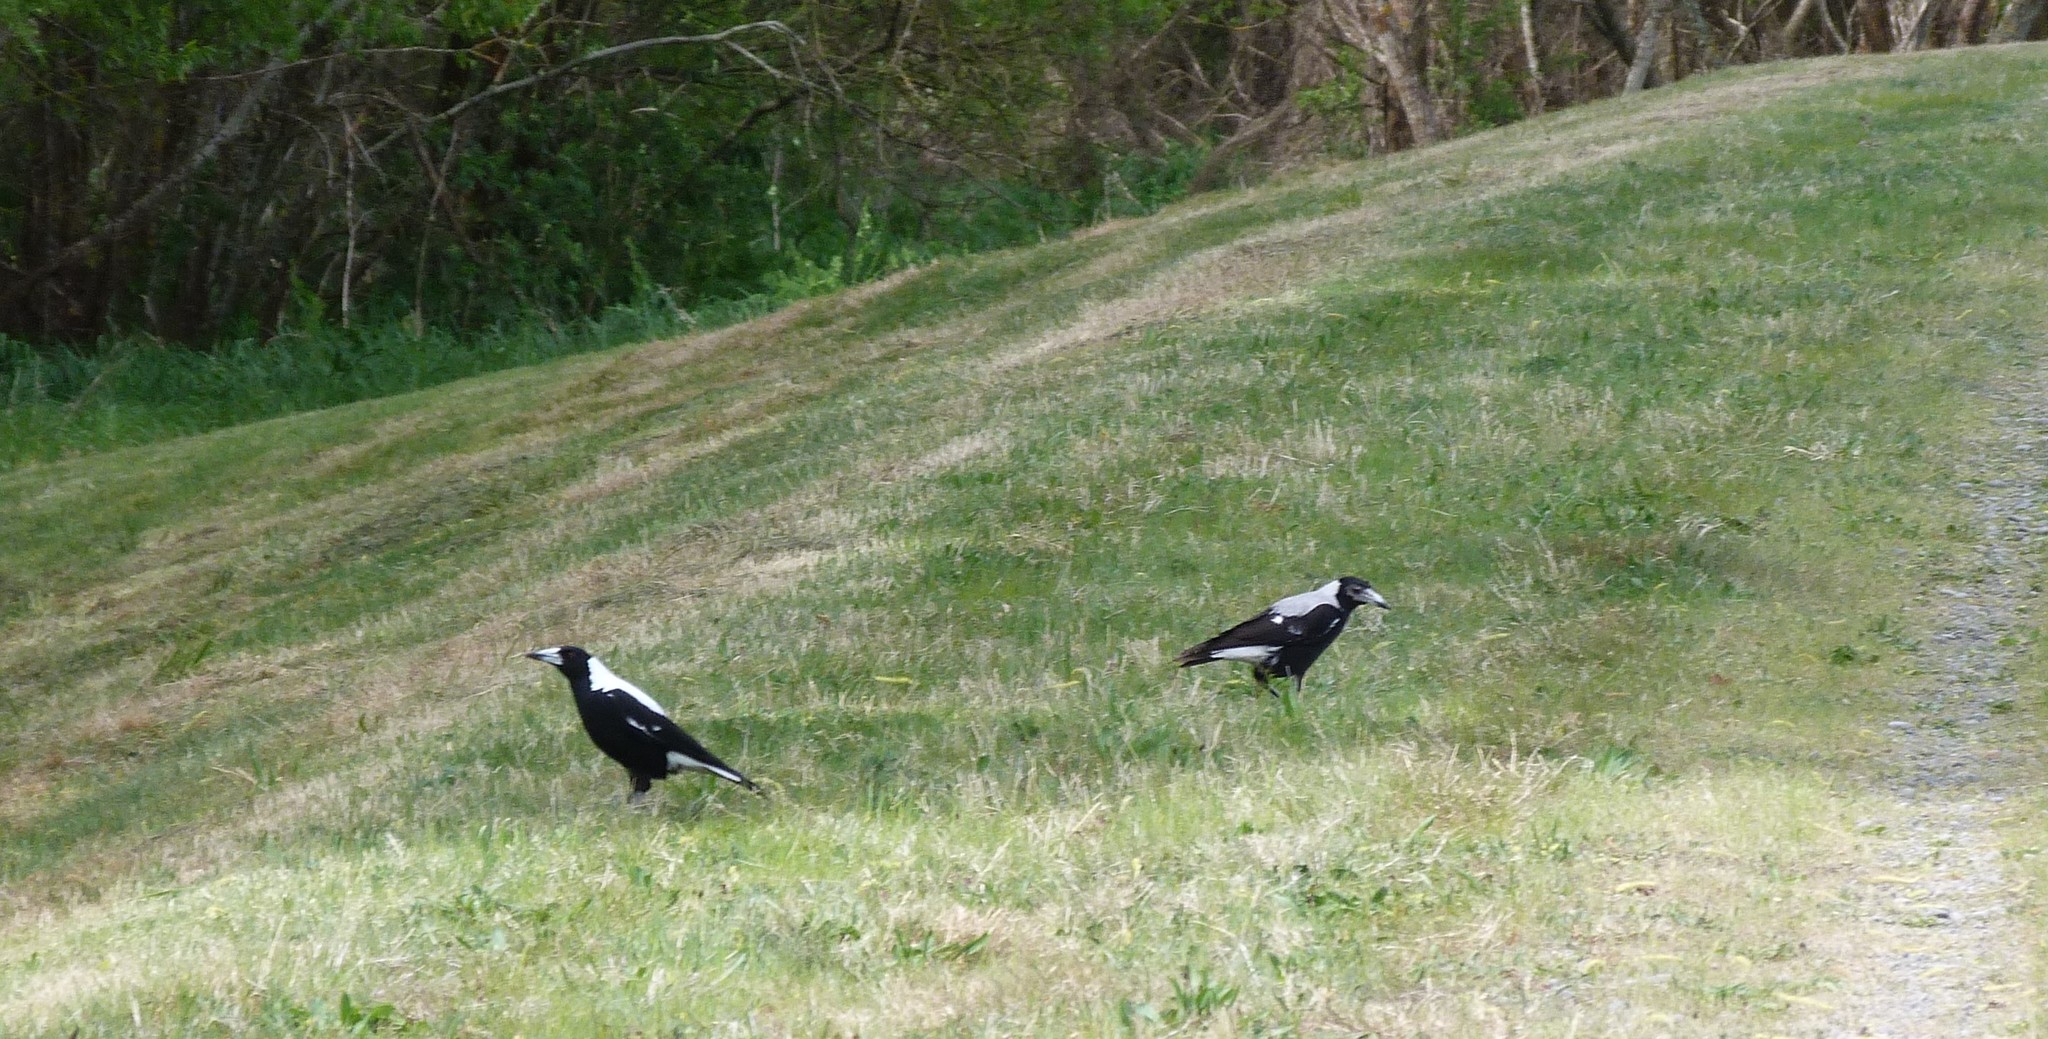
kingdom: Animalia
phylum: Chordata
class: Aves
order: Passeriformes
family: Cracticidae
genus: Gymnorhina
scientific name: Gymnorhina tibicen
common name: Australian magpie
